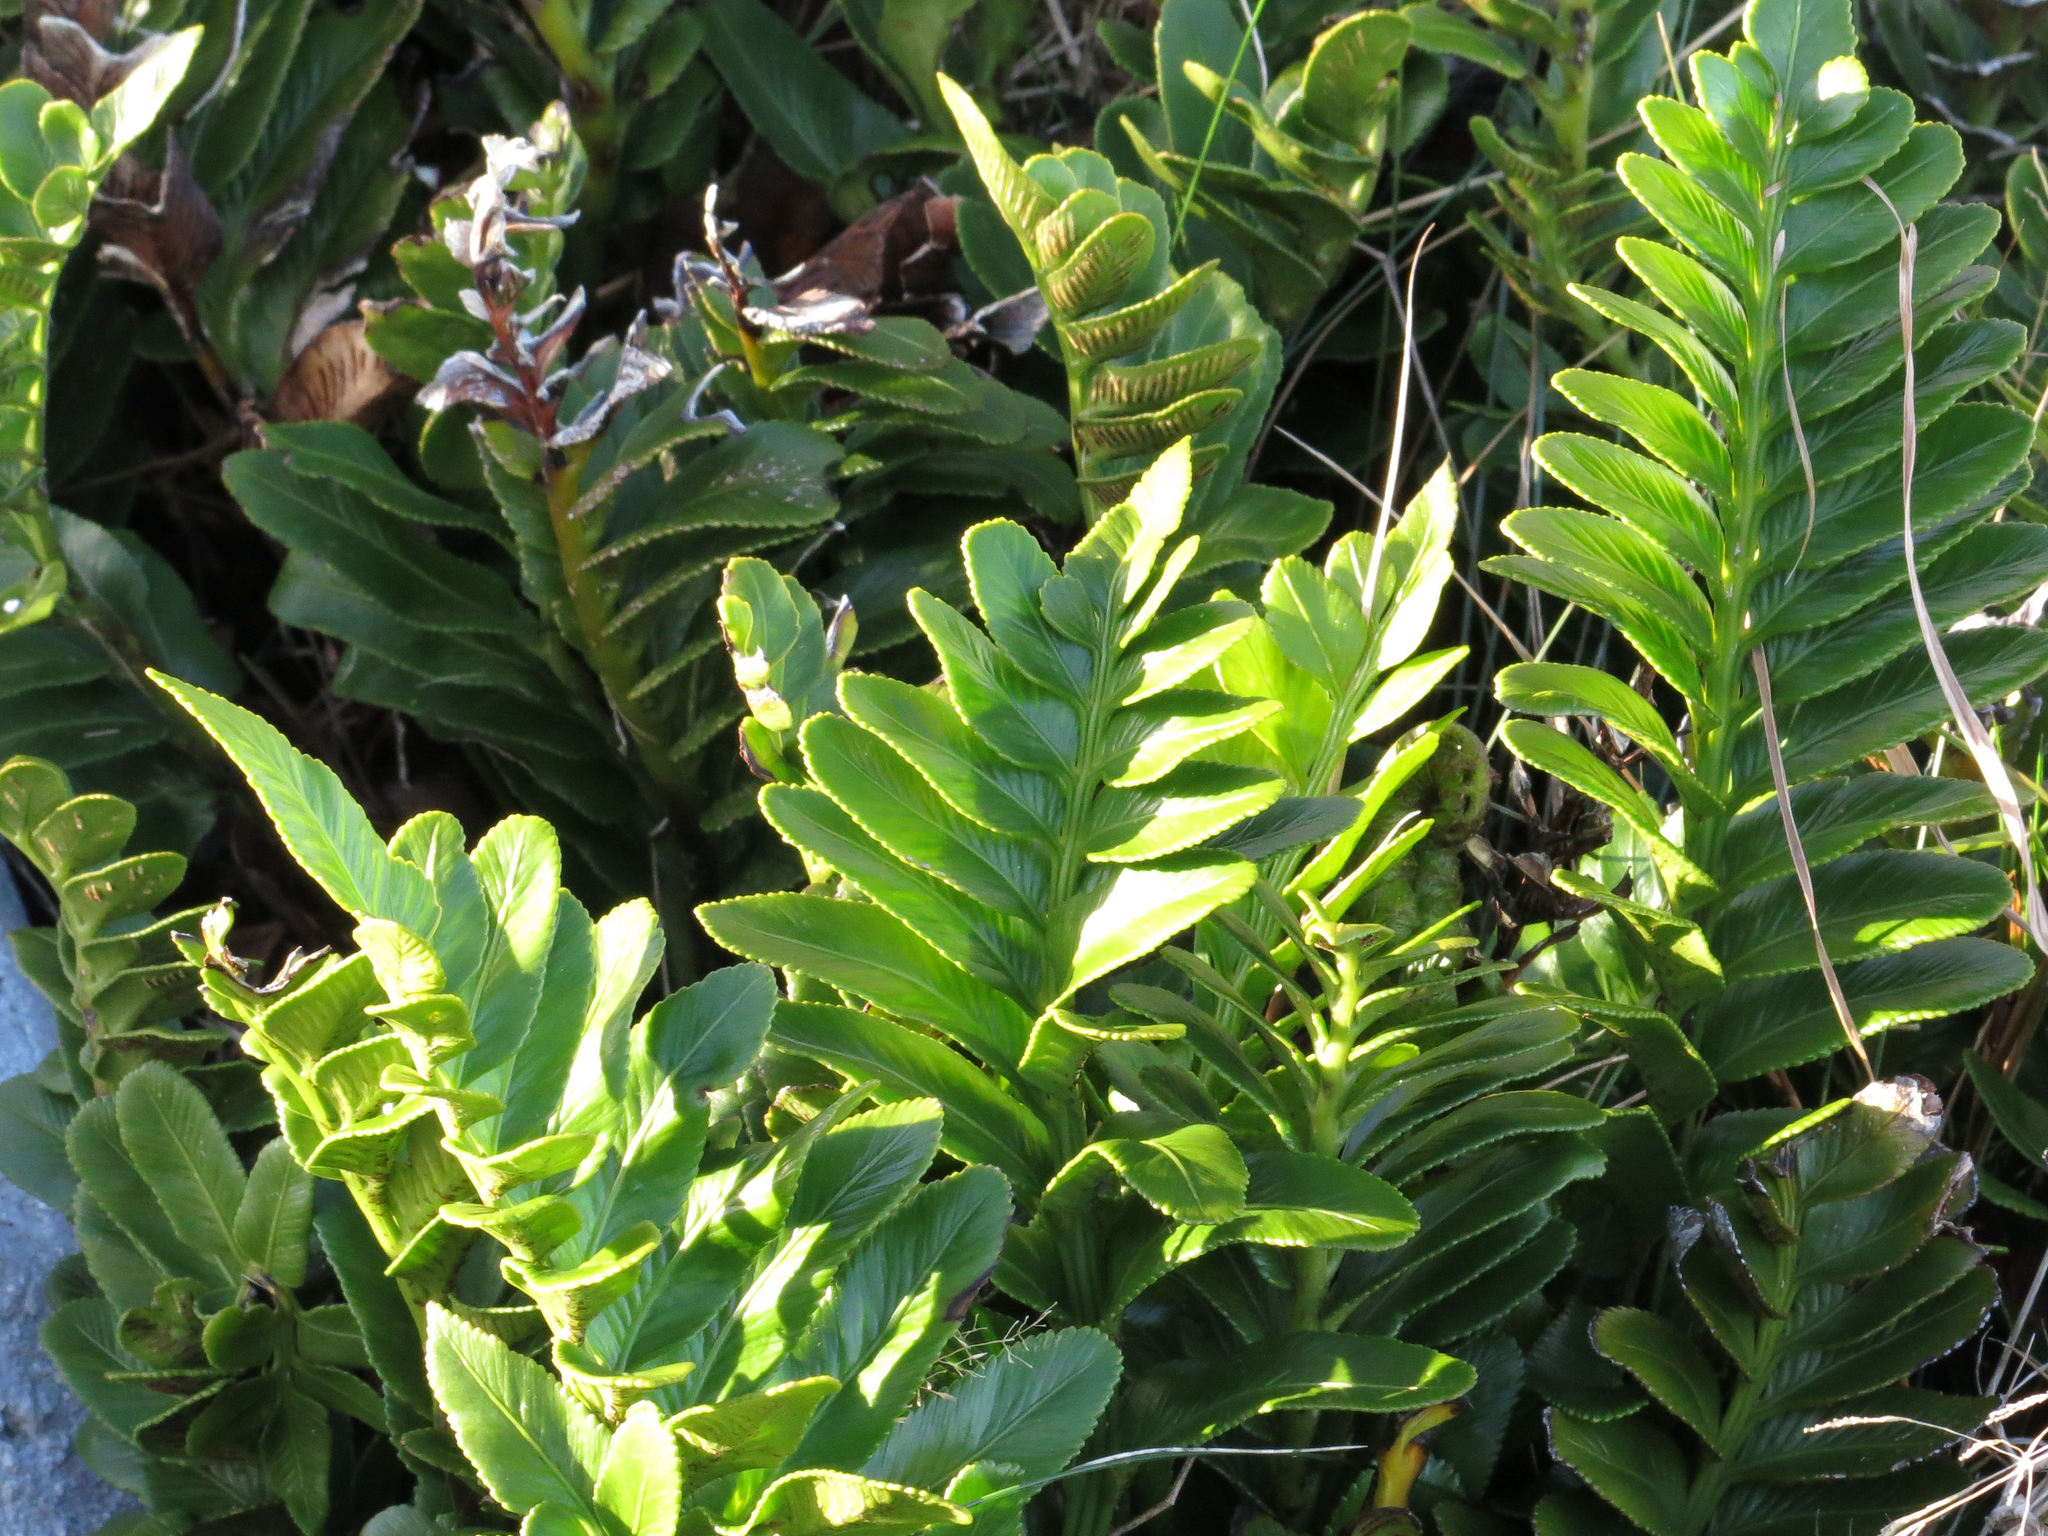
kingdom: Plantae
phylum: Tracheophyta
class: Polypodiopsida
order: Polypodiales
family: Aspleniaceae
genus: Asplenium
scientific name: Asplenium obtusatum
